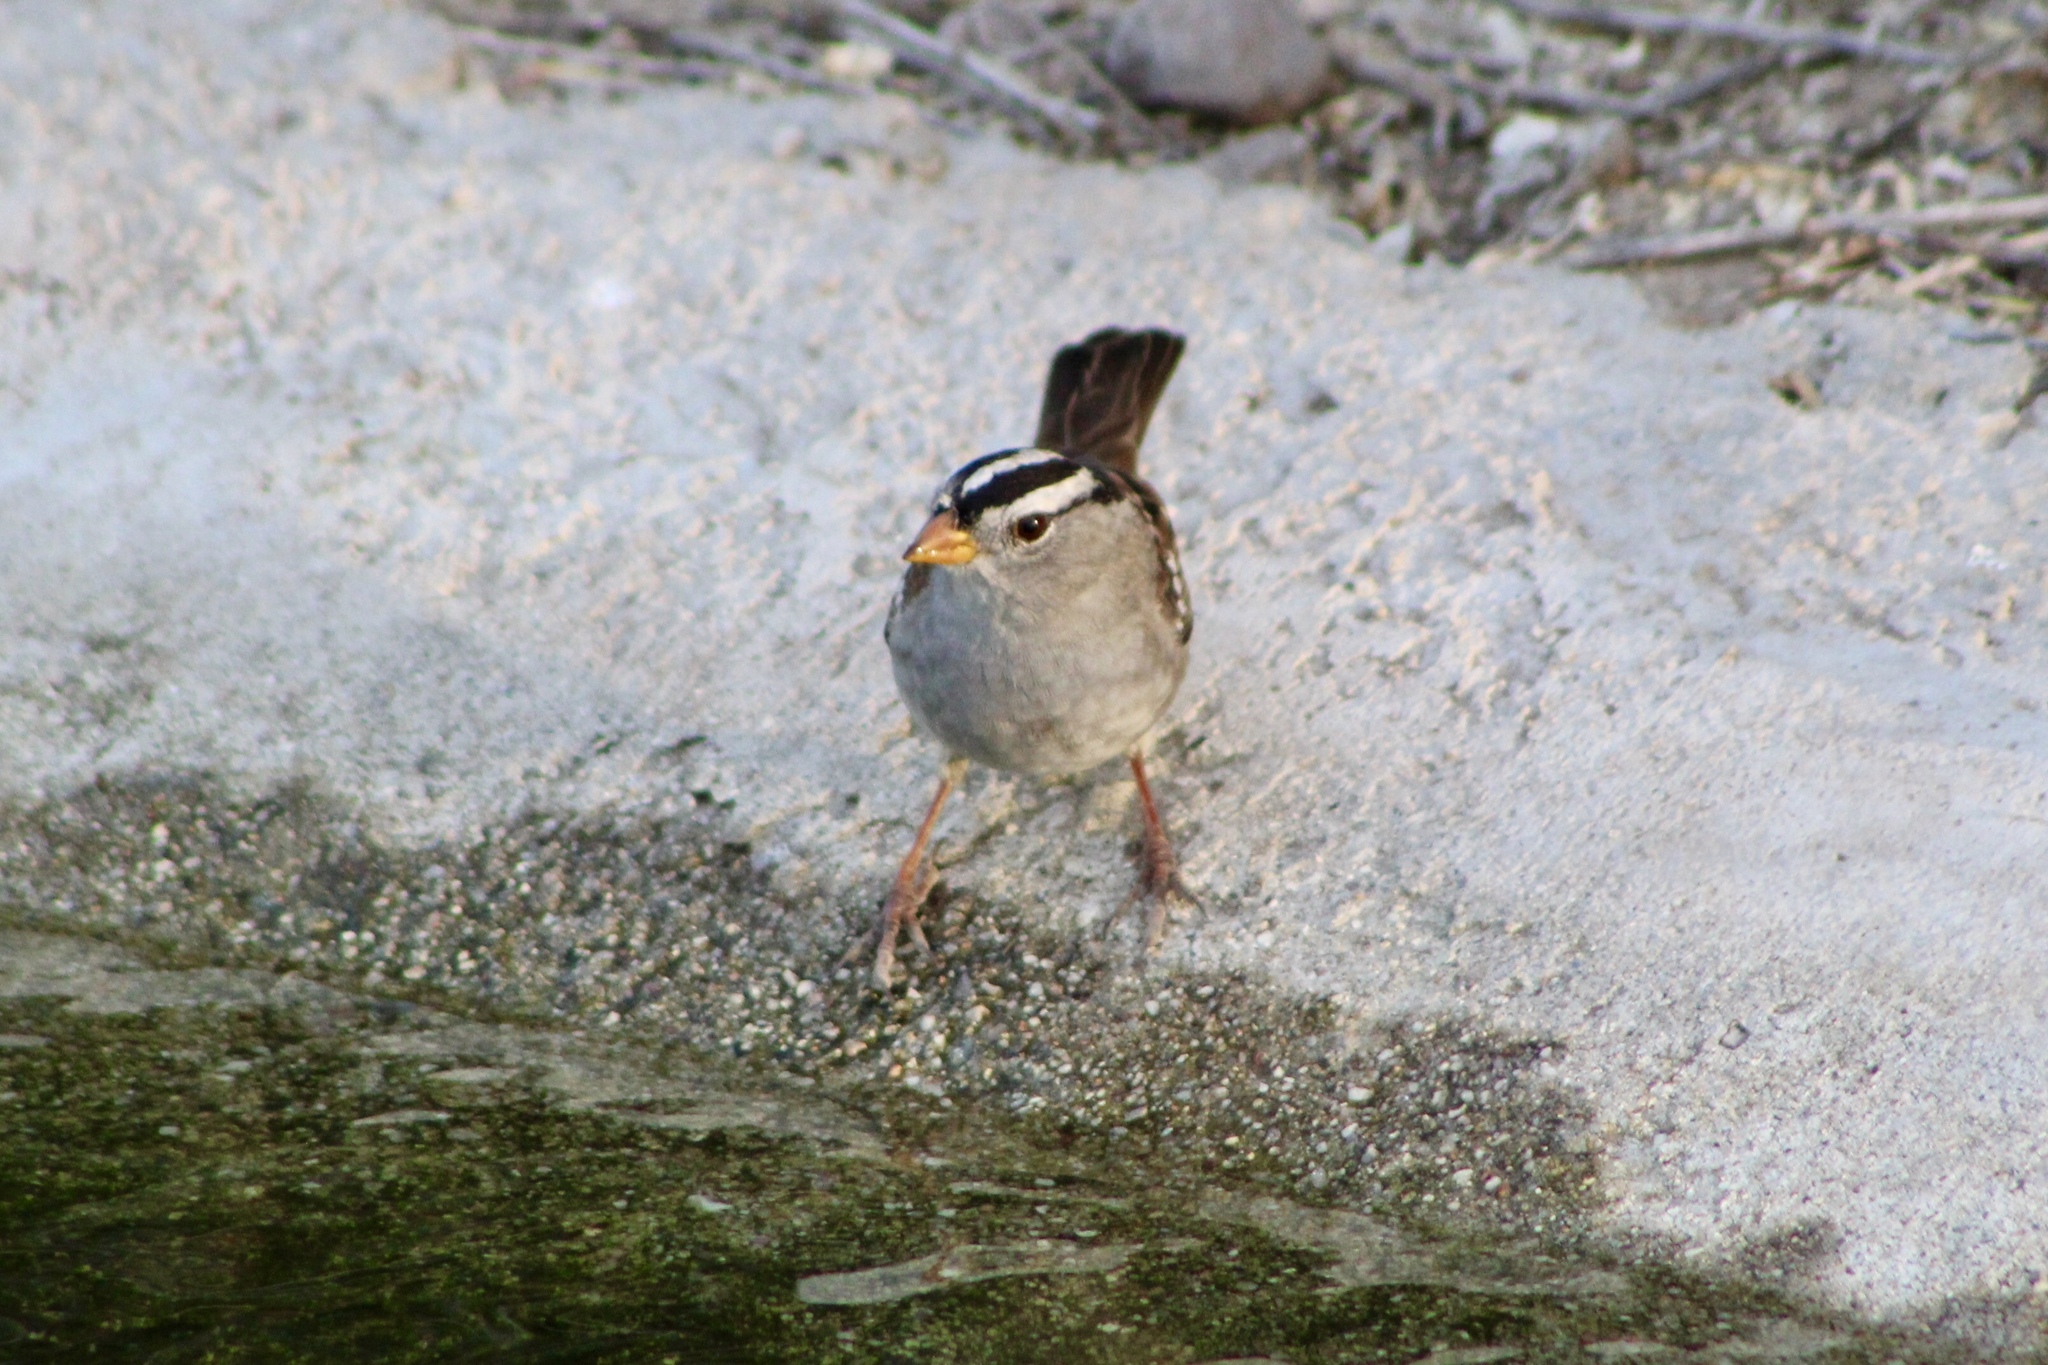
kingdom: Animalia
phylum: Chordata
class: Aves
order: Passeriformes
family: Passerellidae
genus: Zonotrichia
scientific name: Zonotrichia leucophrys
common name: White-crowned sparrow
